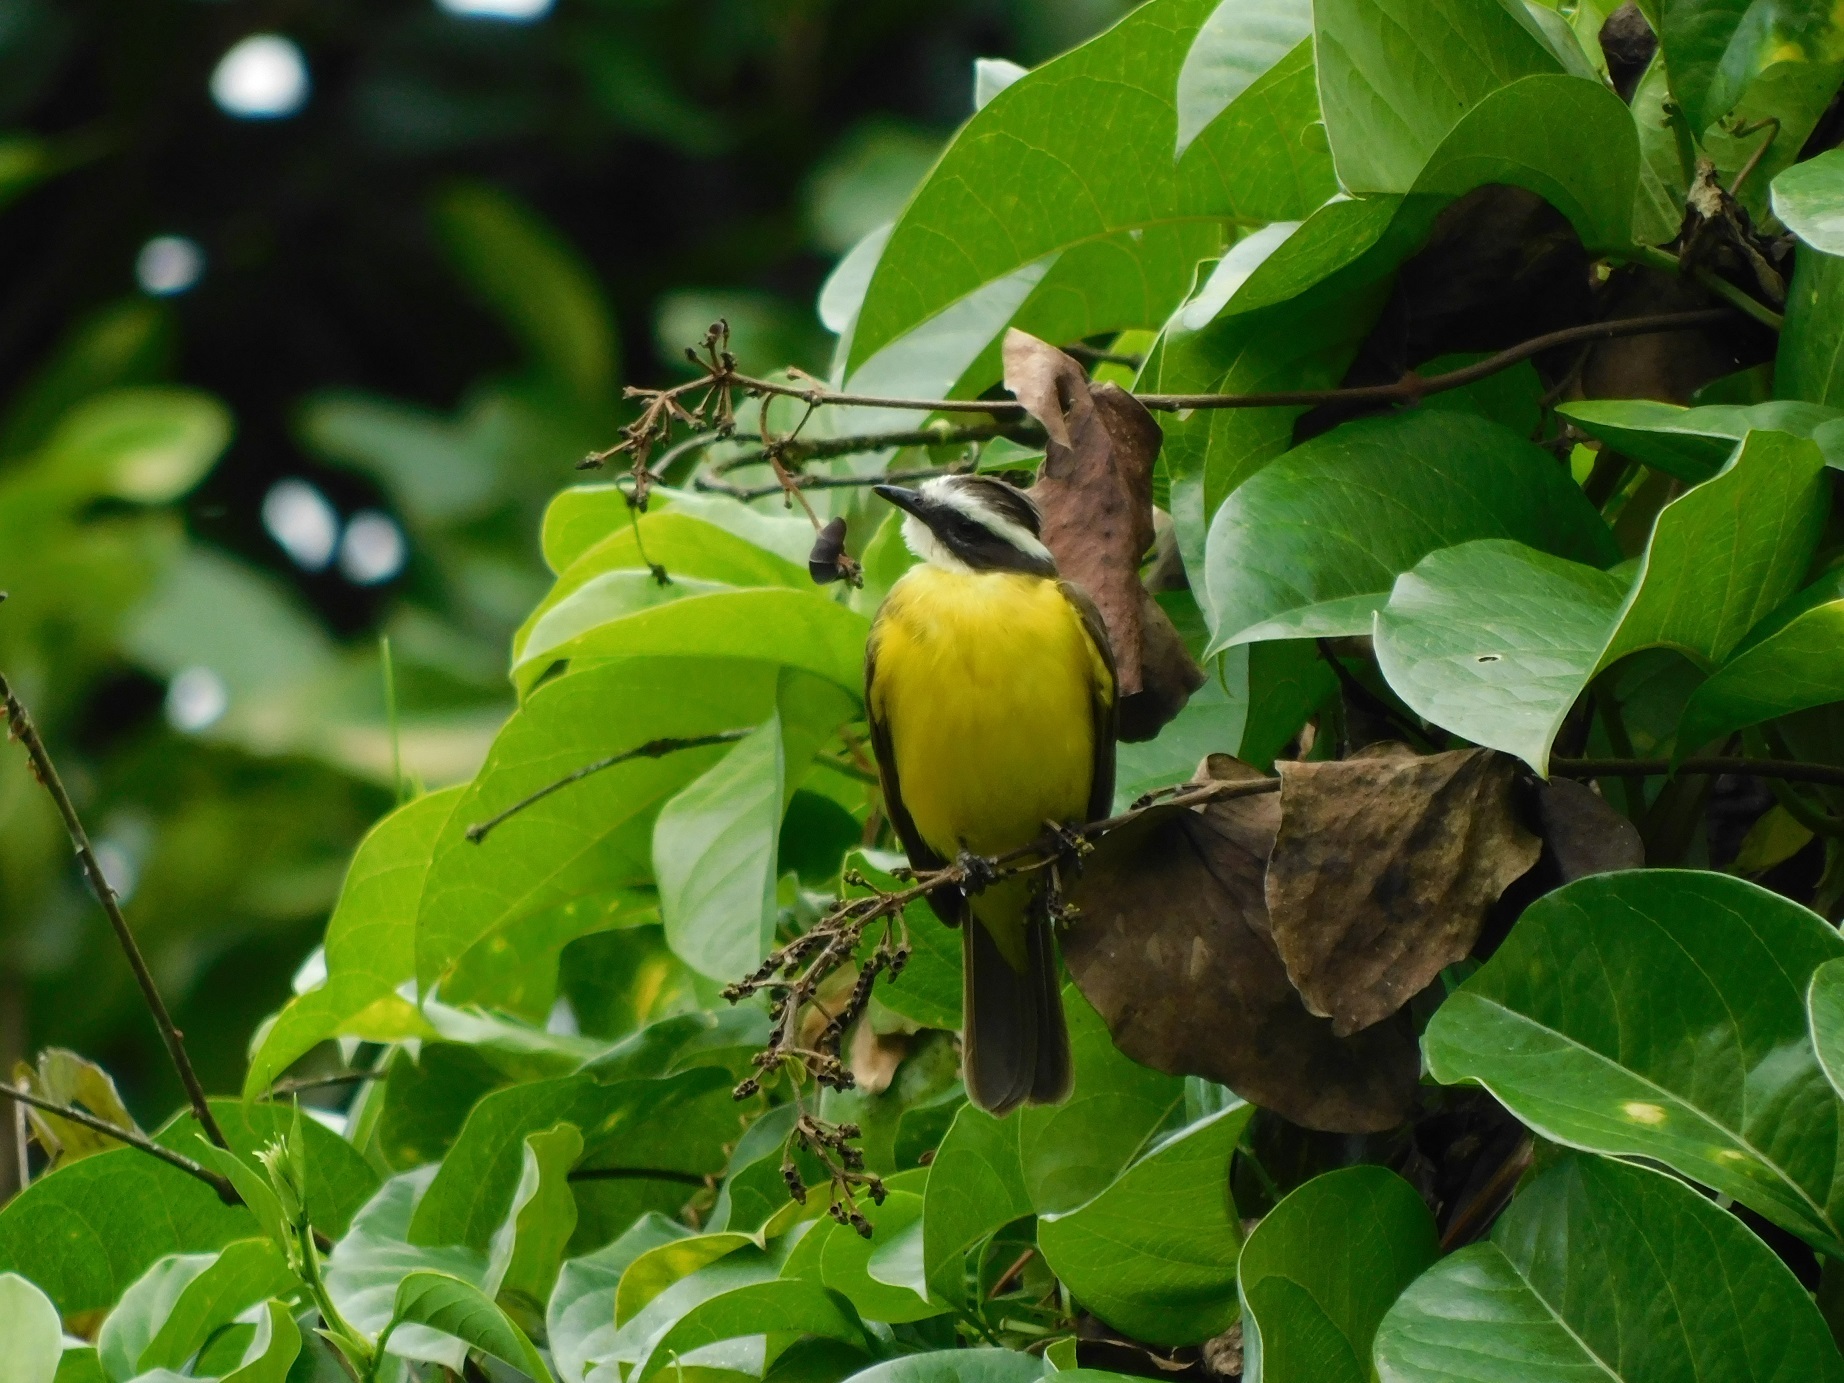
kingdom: Animalia
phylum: Chordata
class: Aves
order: Passeriformes
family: Tyrannidae
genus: Myiozetetes
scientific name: Myiozetetes similis
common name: Social flycatcher
